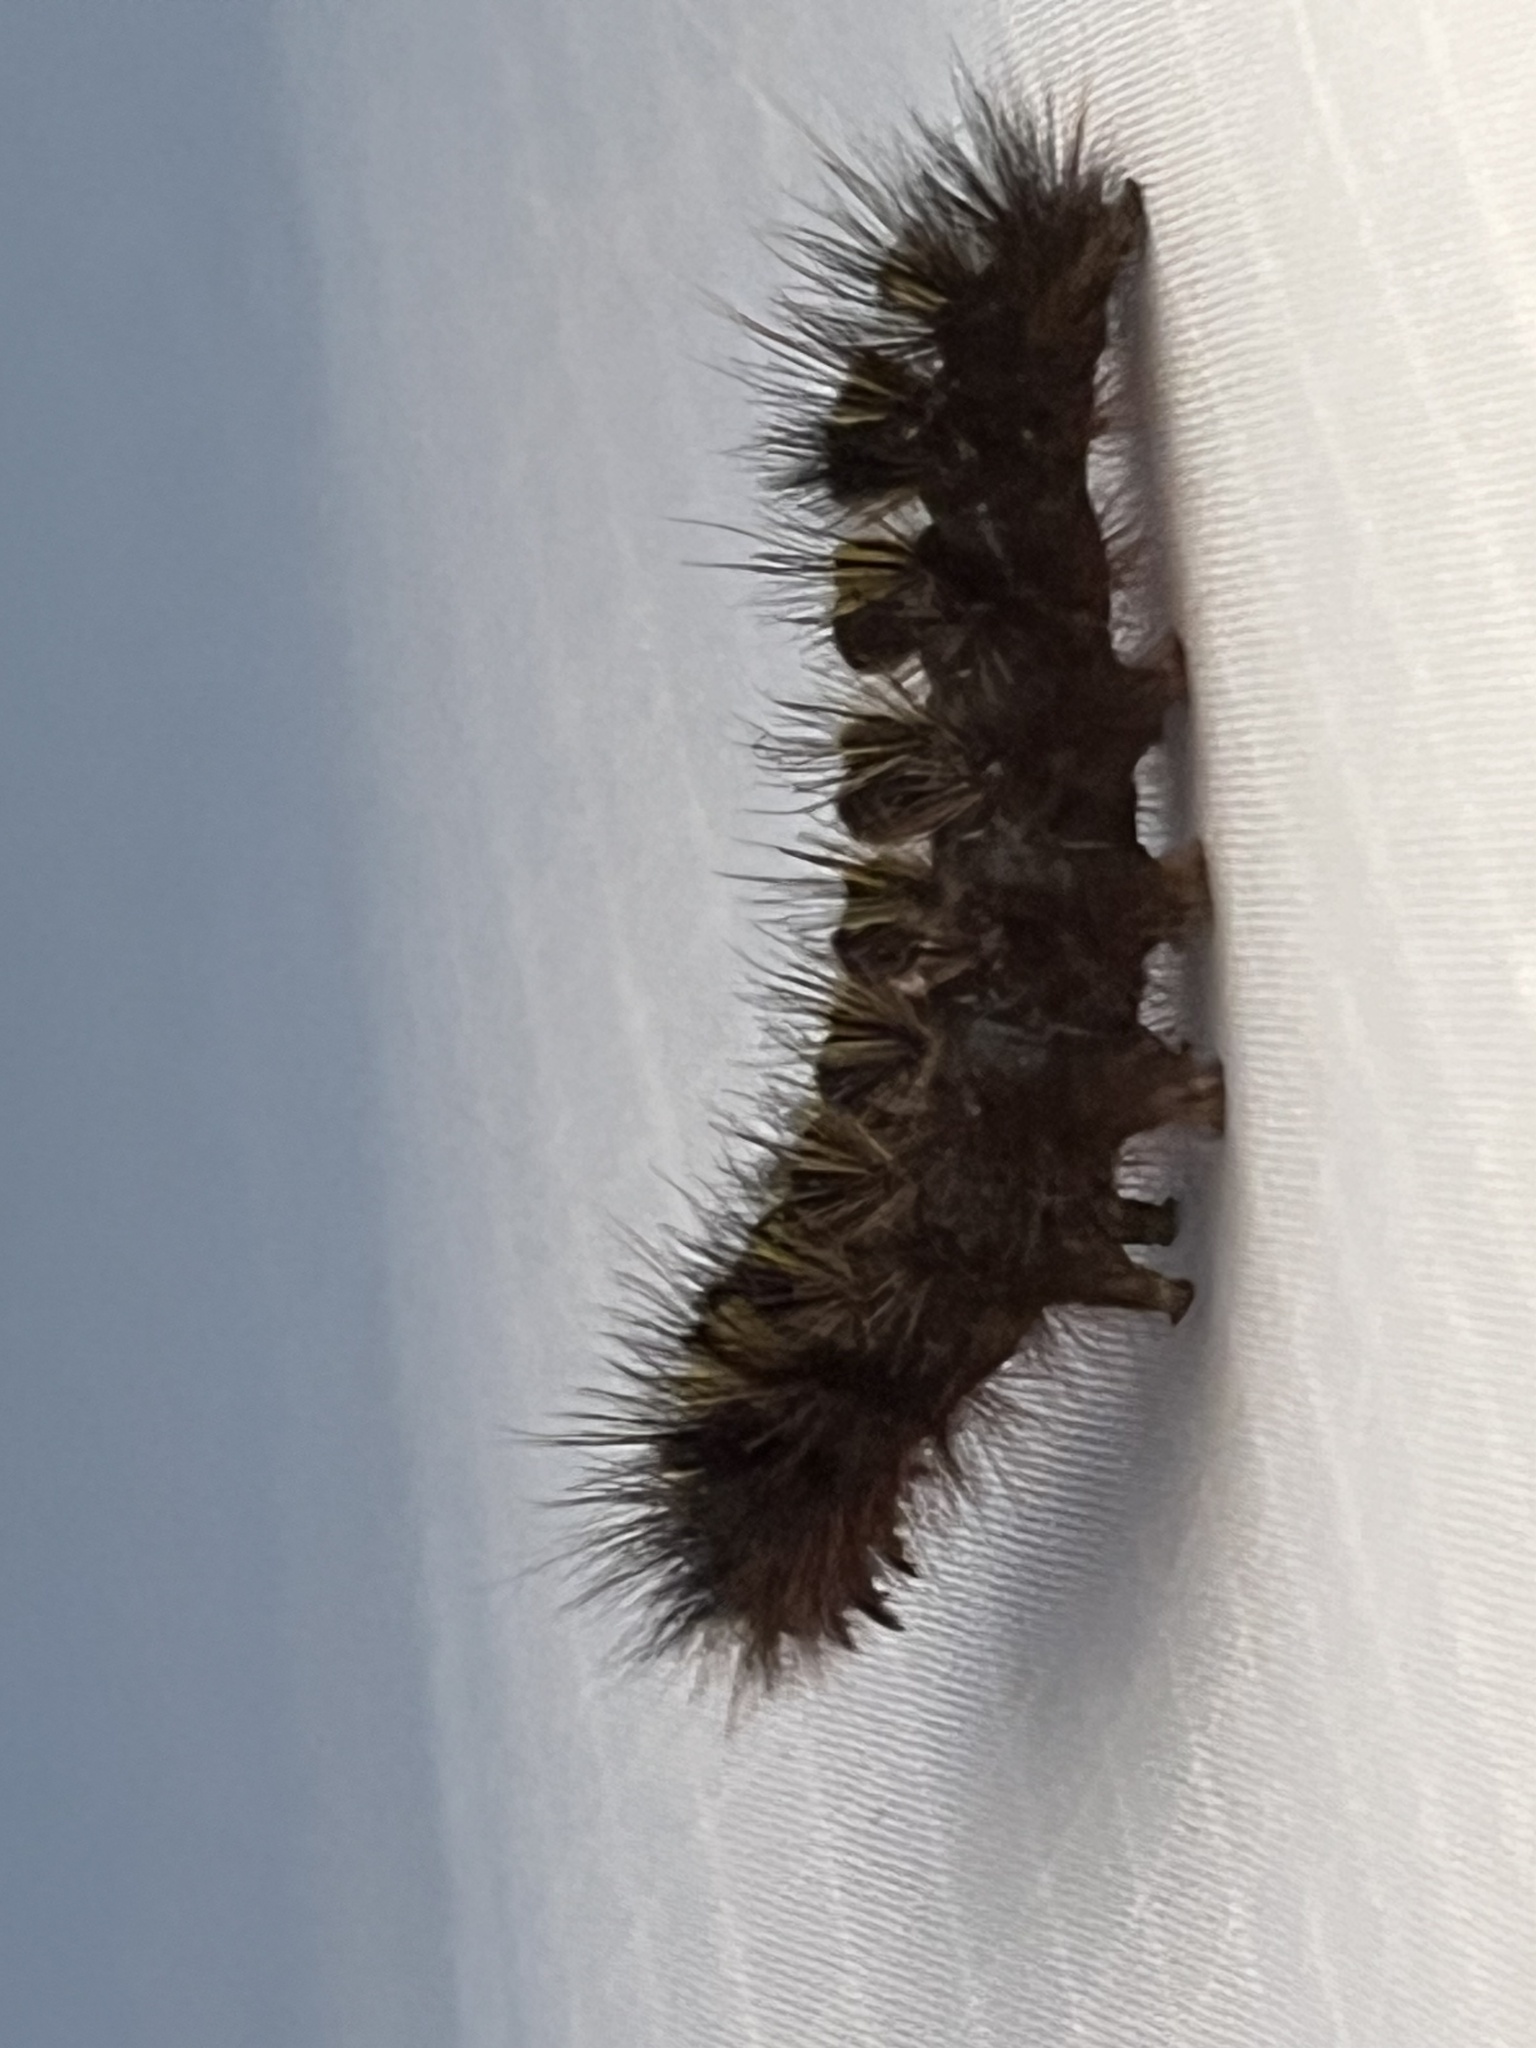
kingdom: Animalia
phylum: Arthropoda
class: Insecta
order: Lepidoptera
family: Erebidae
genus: Lophocampa
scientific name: Lophocampa argentata
